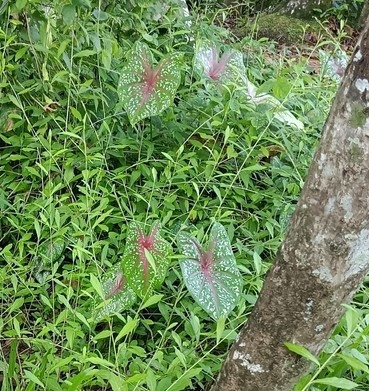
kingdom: Plantae
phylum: Tracheophyta
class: Liliopsida
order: Alismatales
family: Araceae
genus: Caladium
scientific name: Caladium bicolor
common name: Artist's pallet
